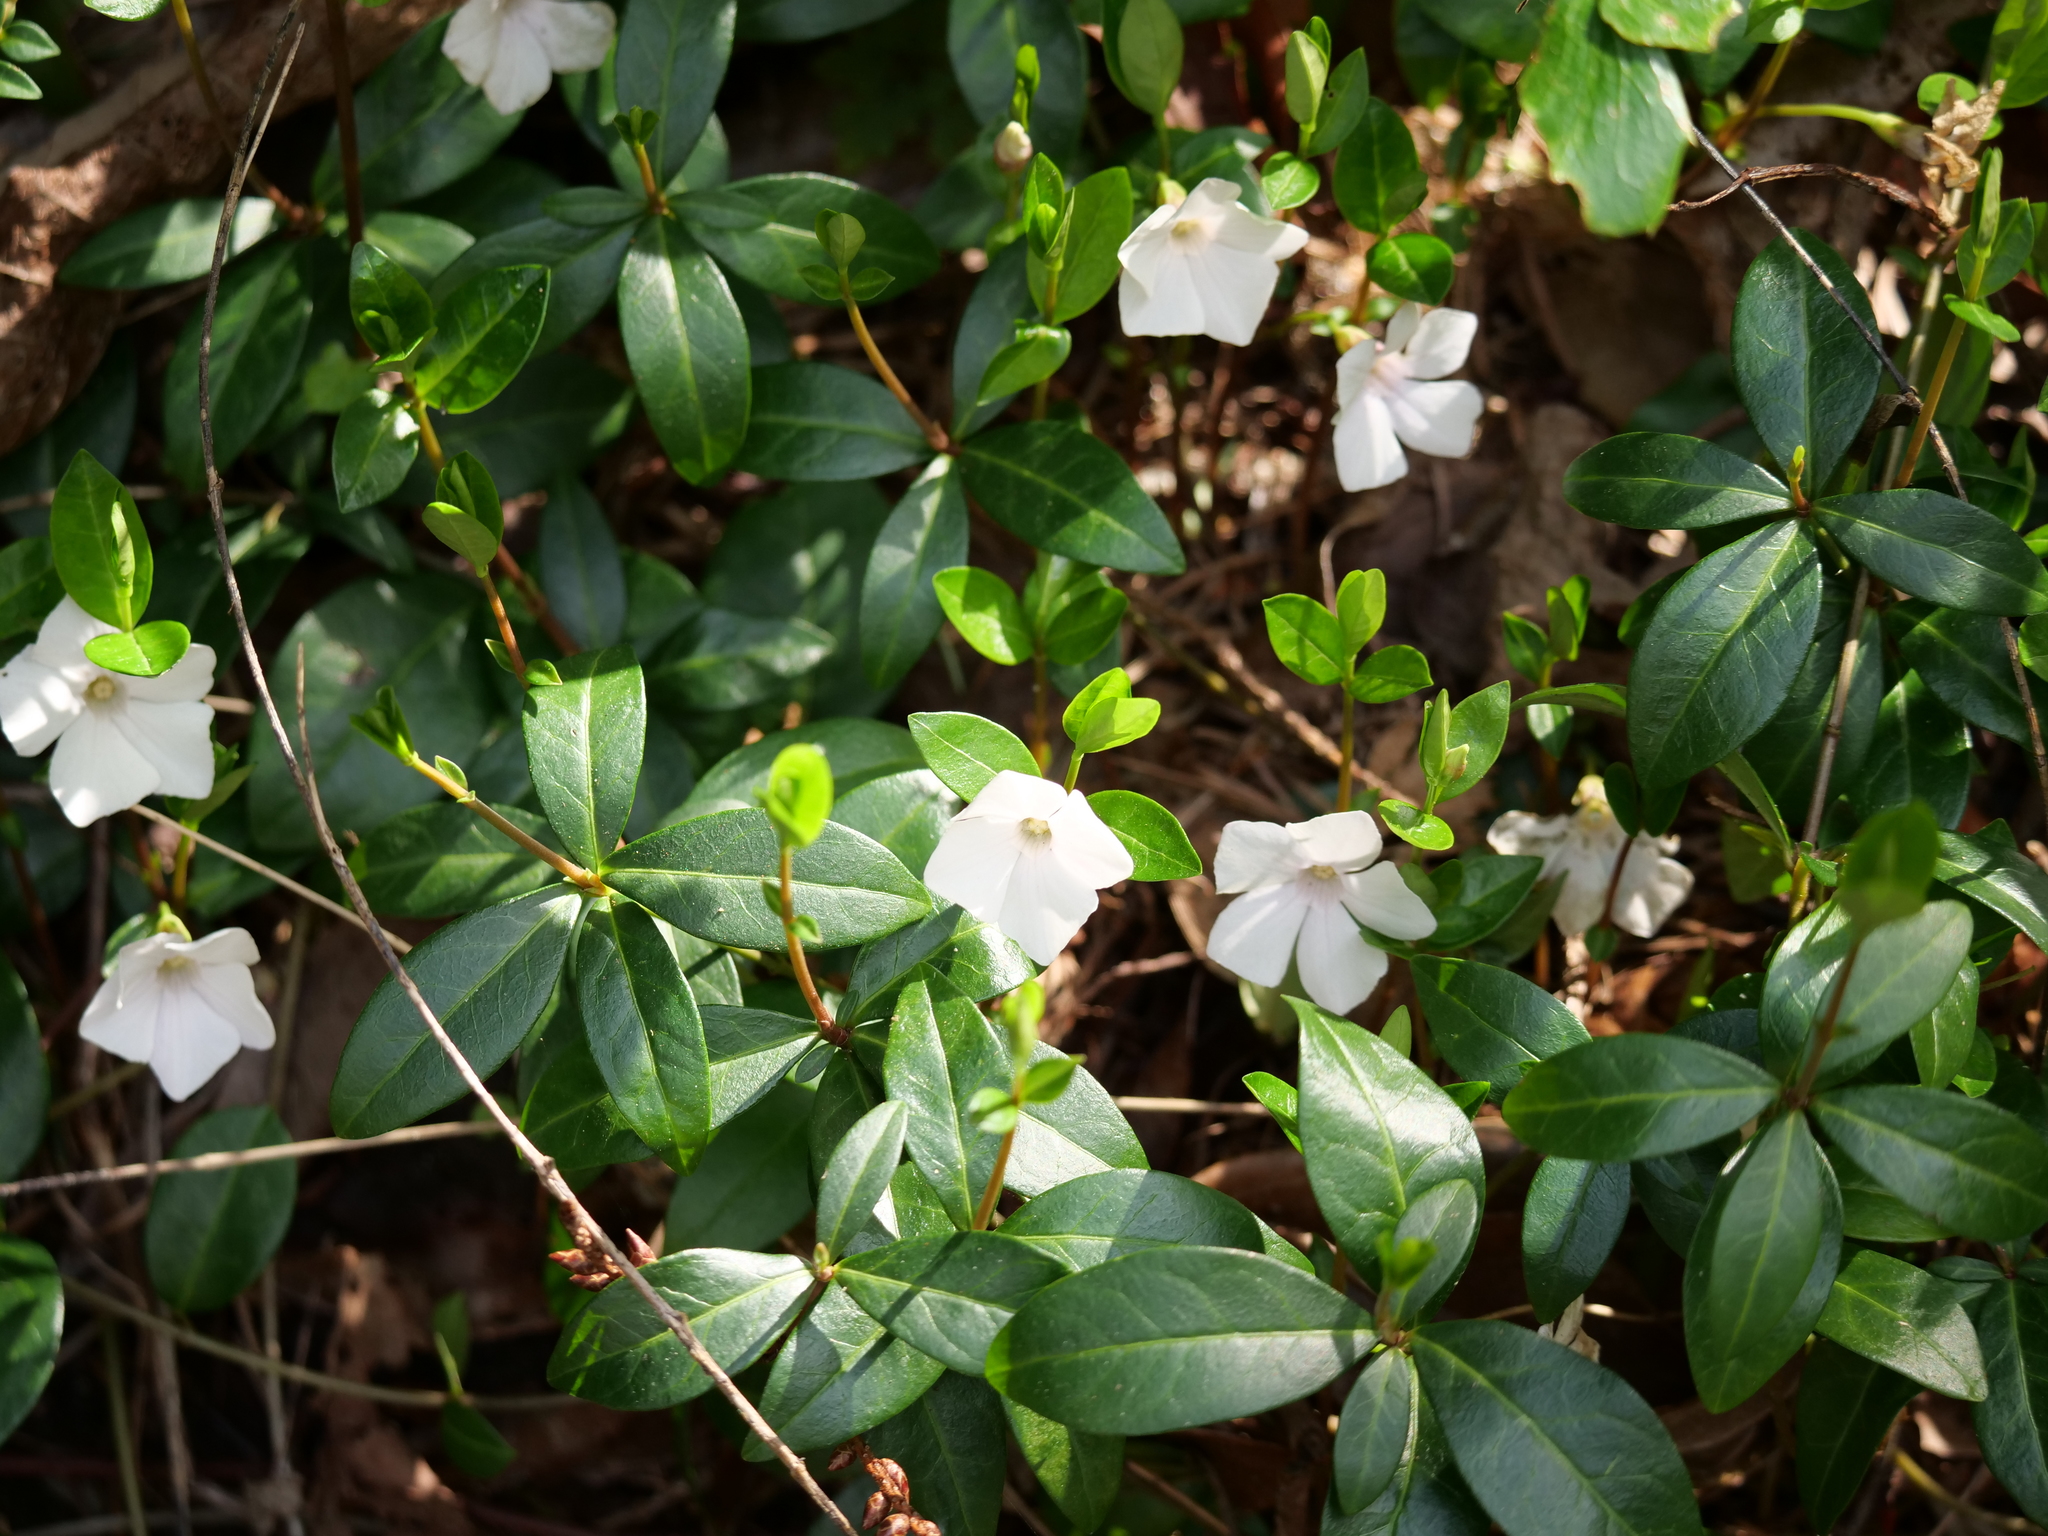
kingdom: Plantae
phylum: Tracheophyta
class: Magnoliopsida
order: Gentianales
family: Apocynaceae
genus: Vinca
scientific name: Vinca minor
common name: Lesser periwinkle
